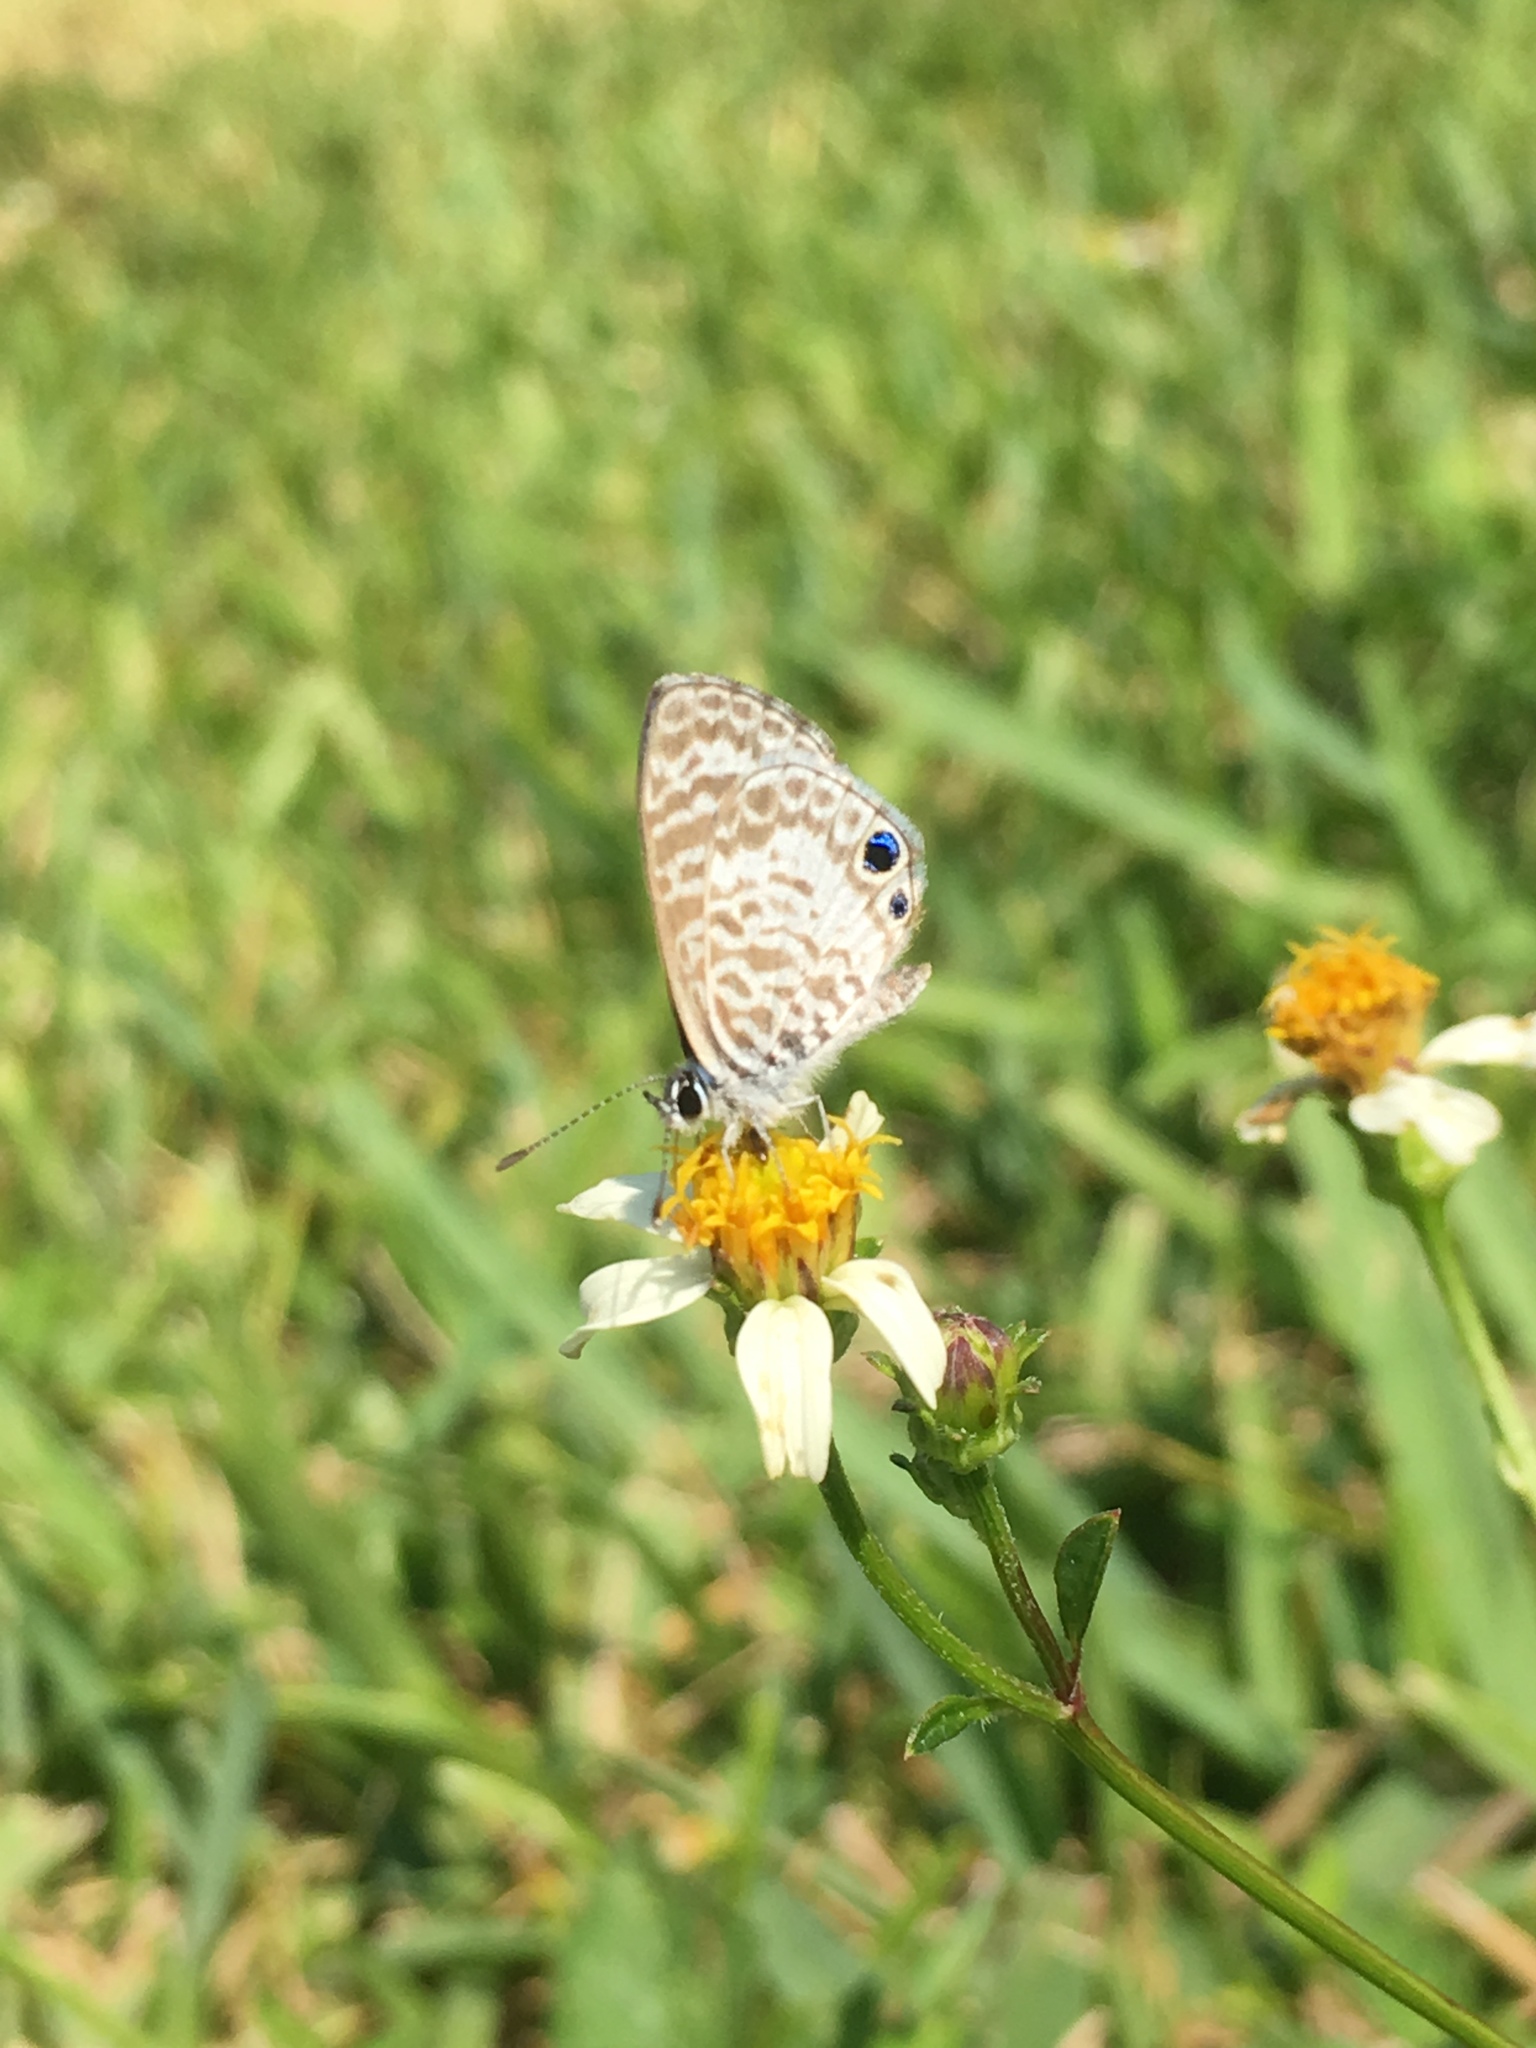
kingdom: Animalia
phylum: Arthropoda
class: Insecta
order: Lepidoptera
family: Lycaenidae
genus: Leptotes
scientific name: Leptotes cassius
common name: Cassius blue
